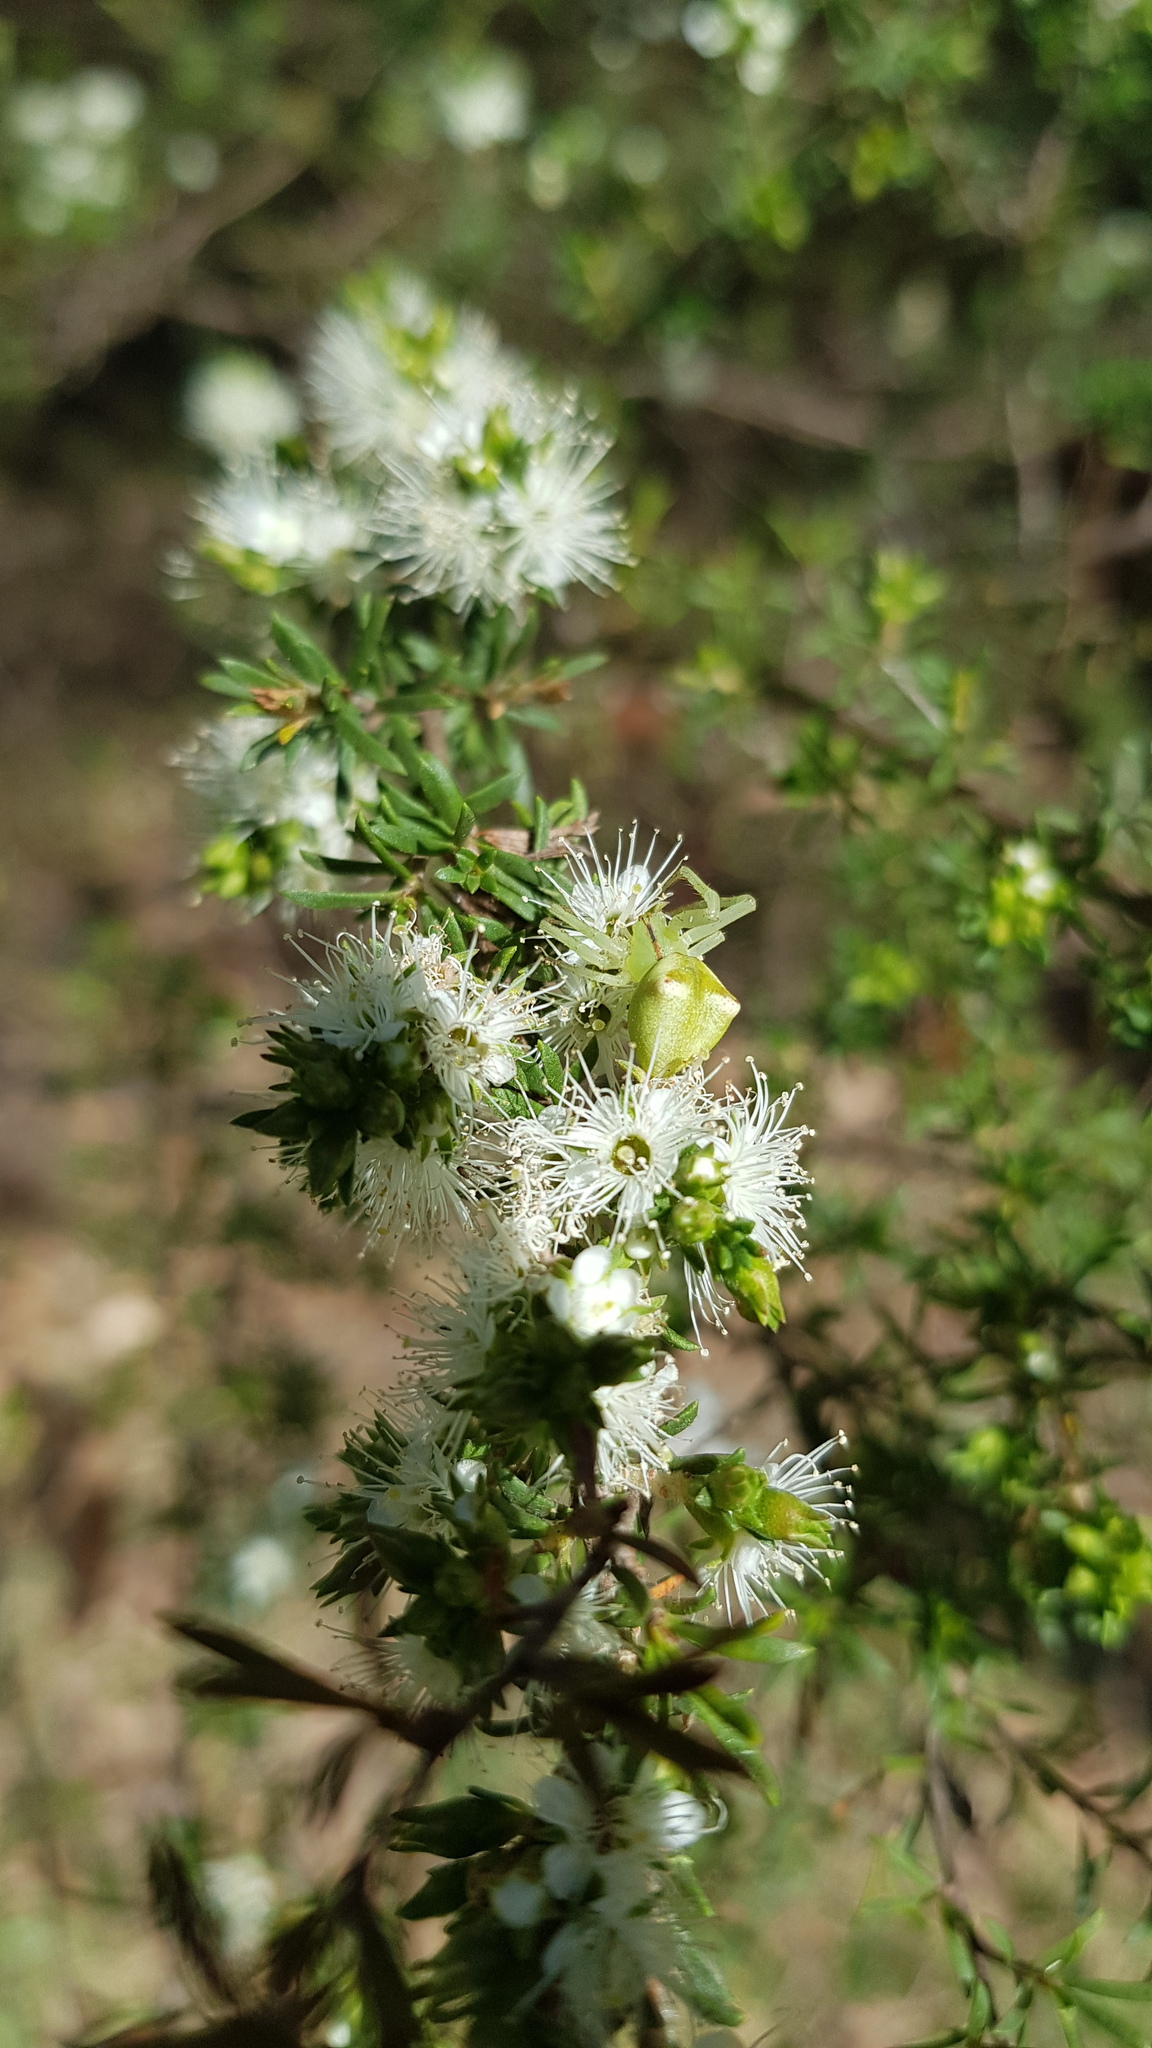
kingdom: Animalia
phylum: Arthropoda
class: Arachnida
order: Araneae
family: Thomisidae
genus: Sidymella
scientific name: Sidymella rubrosignata
